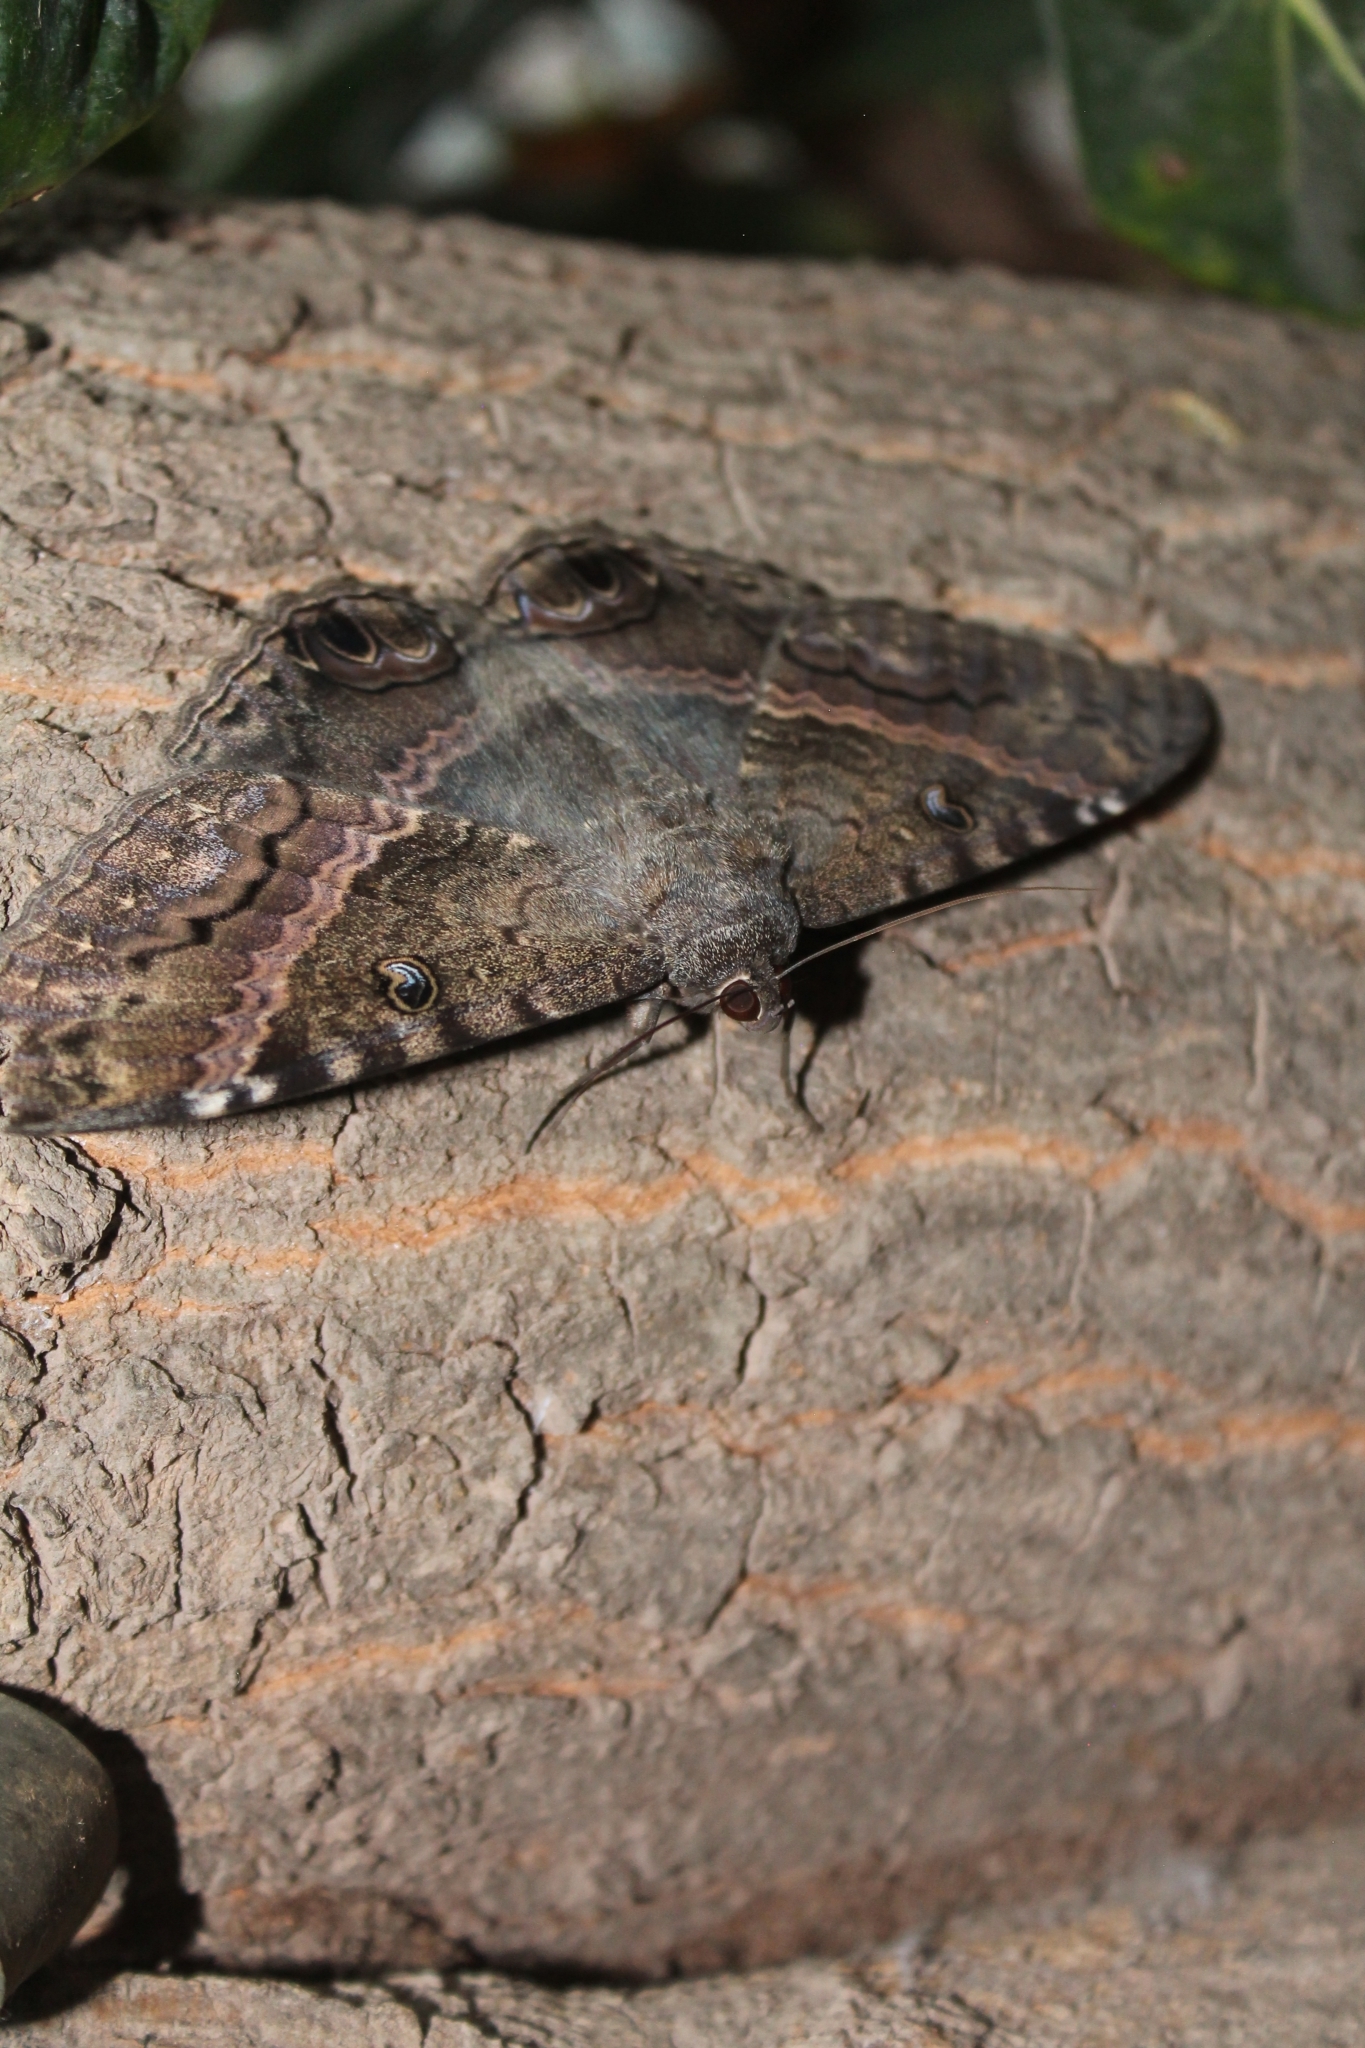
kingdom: Animalia
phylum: Arthropoda
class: Insecta
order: Lepidoptera
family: Erebidae
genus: Ascalapha
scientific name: Ascalapha odorata
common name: Black witch
